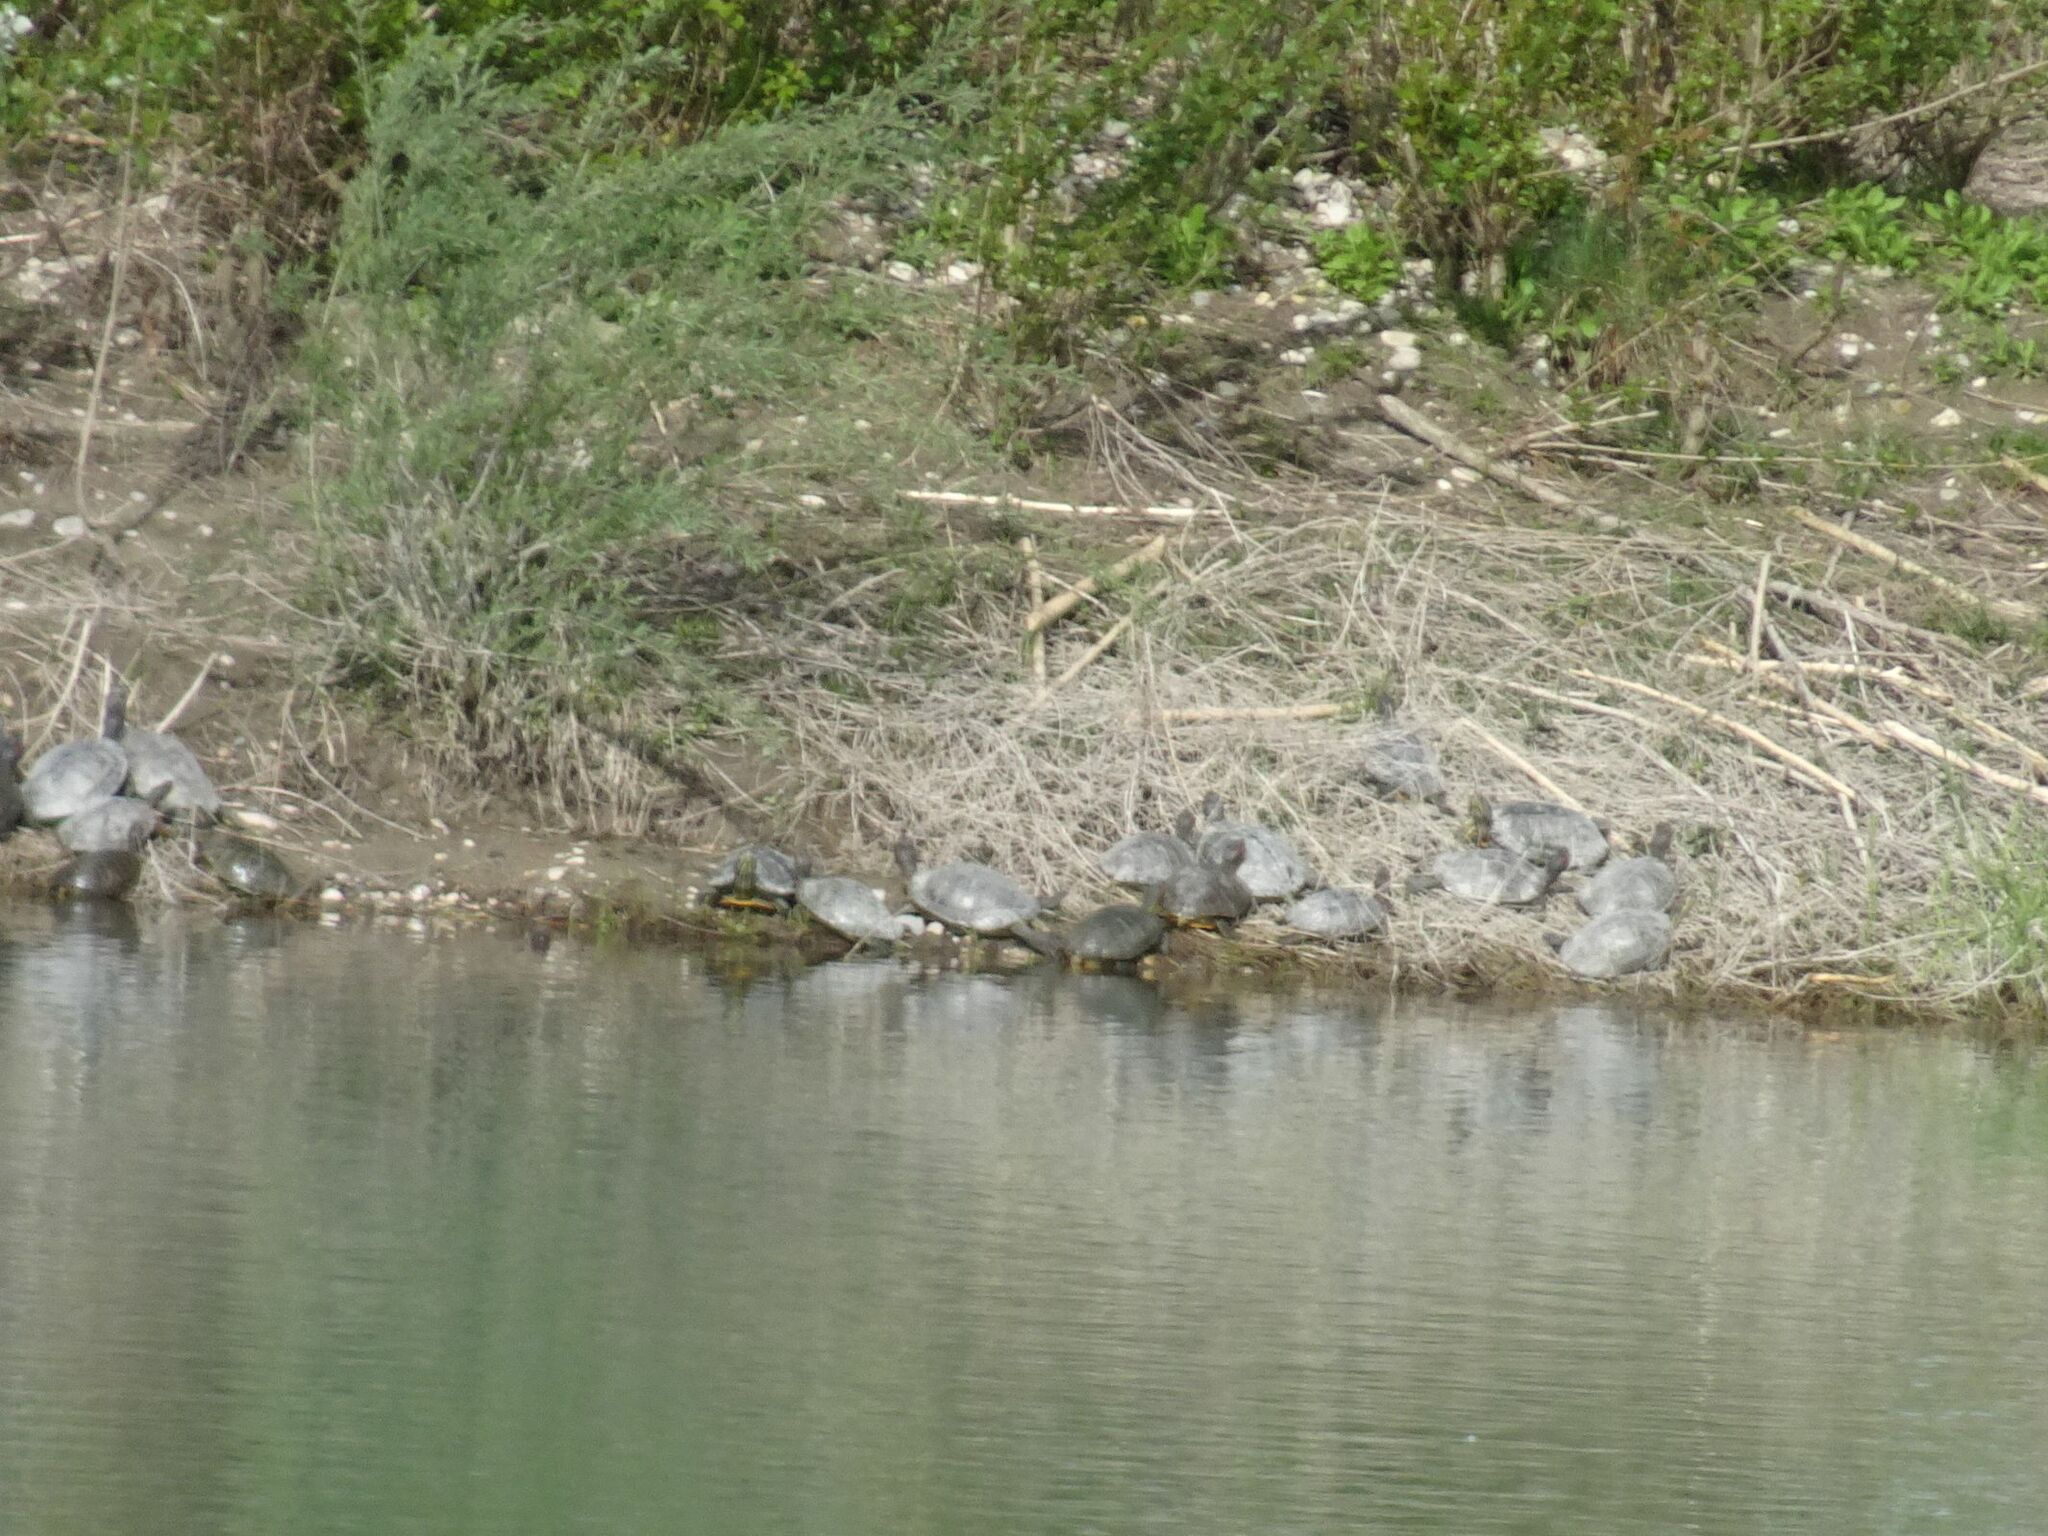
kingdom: Animalia
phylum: Chordata
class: Testudines
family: Emydidae
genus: Trachemys
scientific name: Trachemys scripta
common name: Slider
